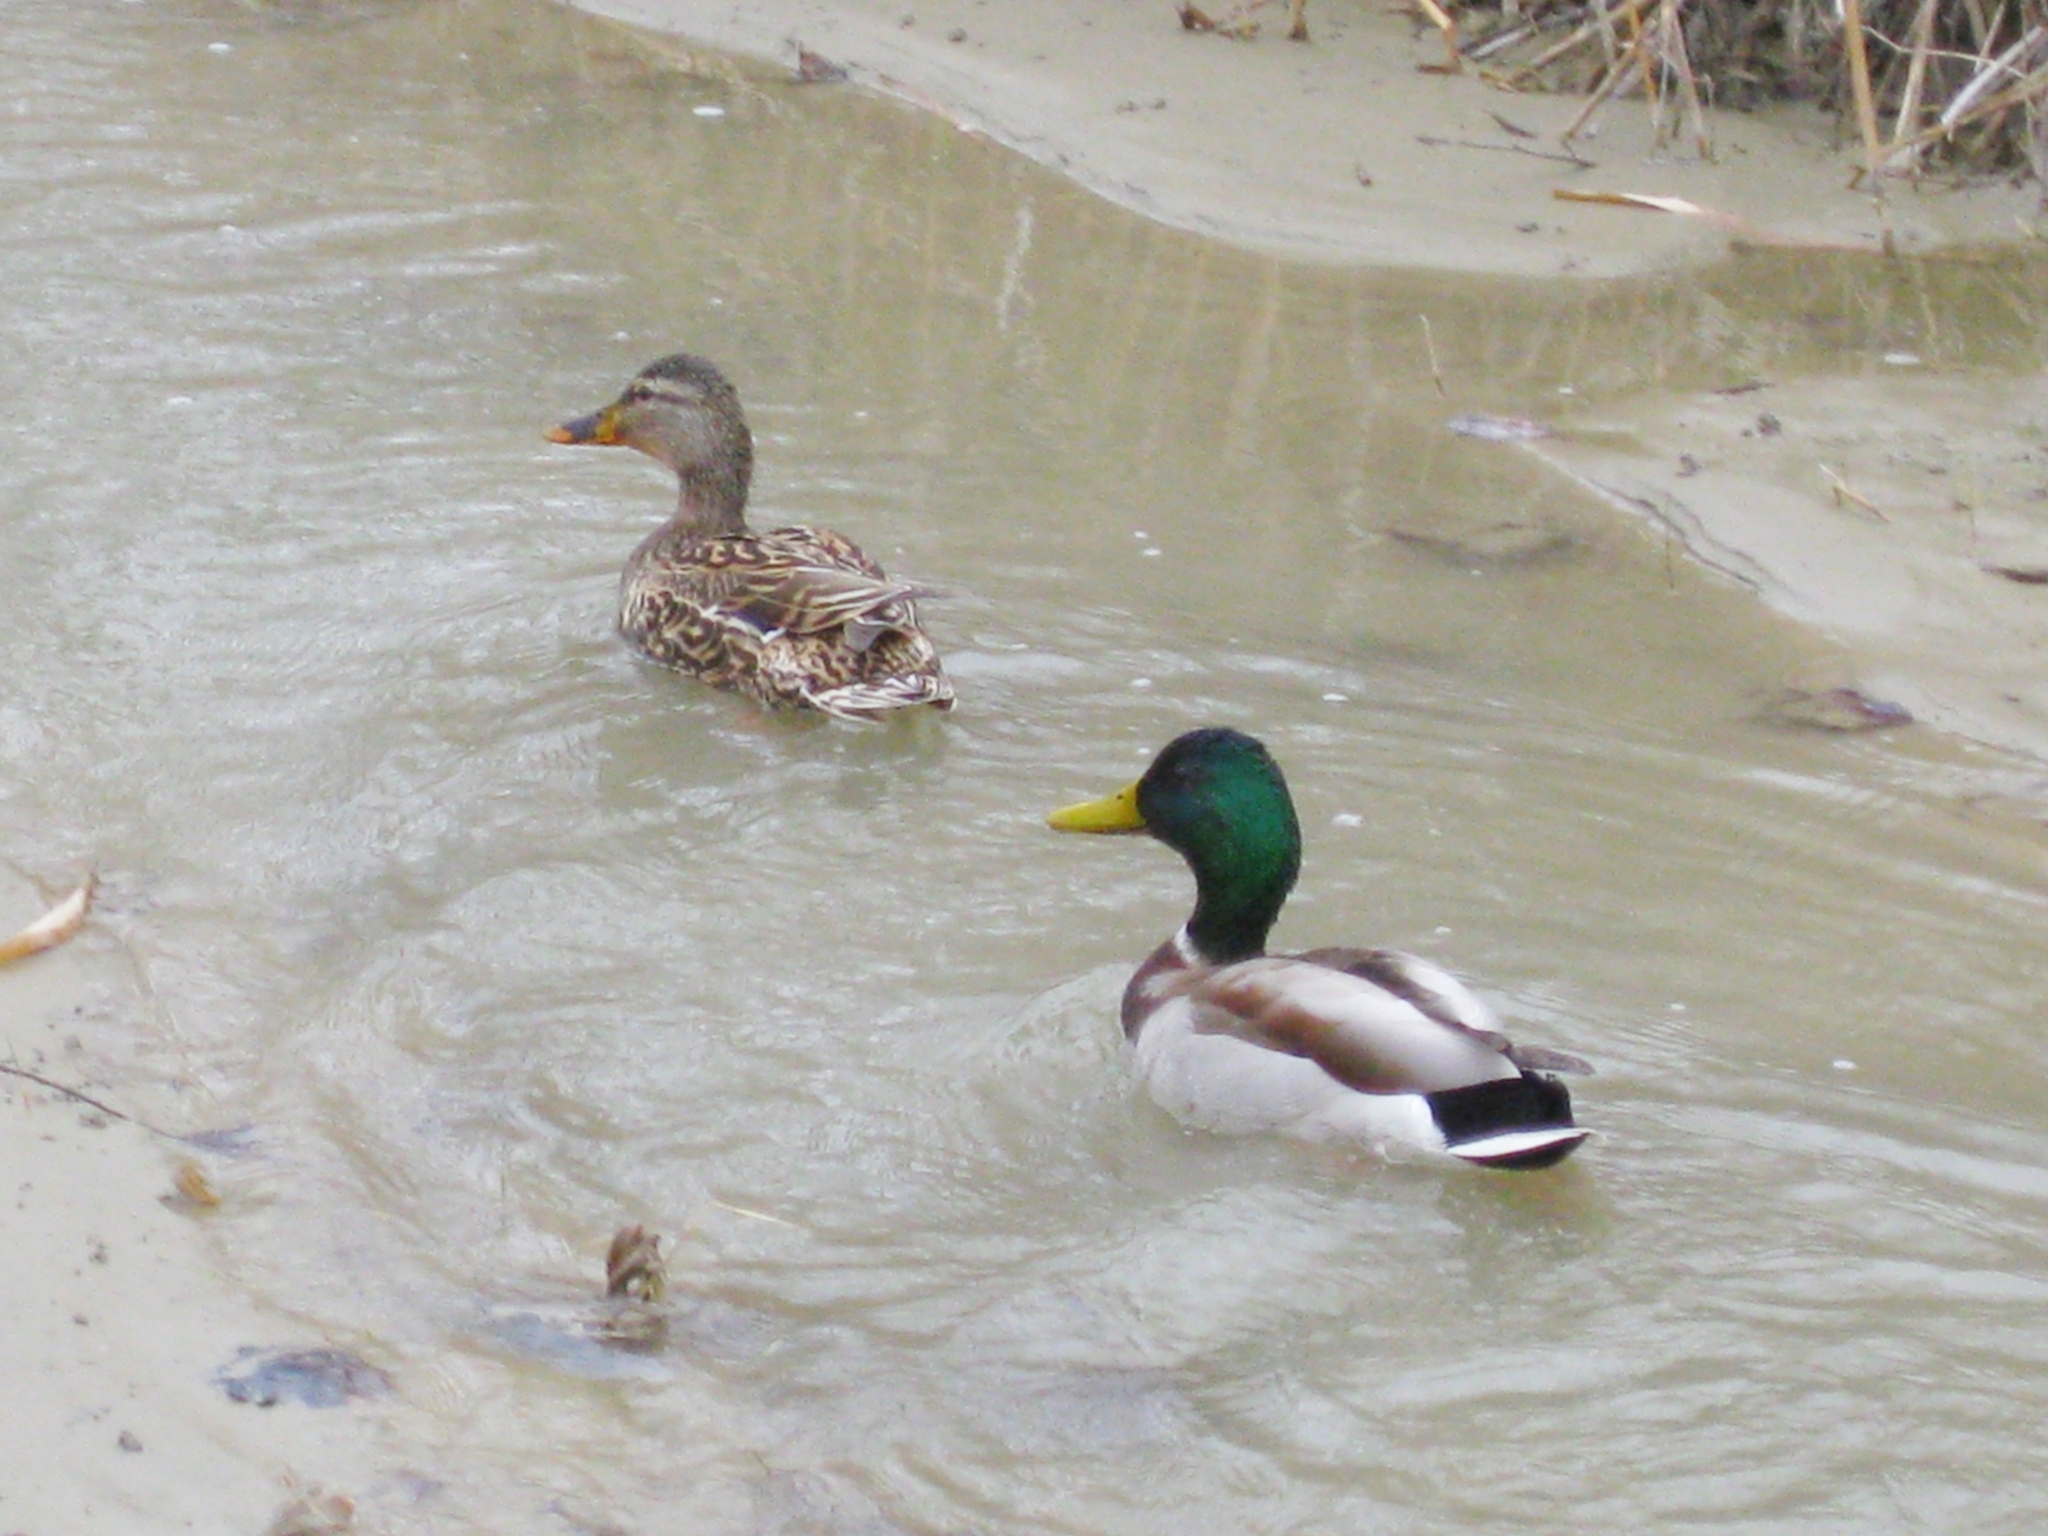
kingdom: Animalia
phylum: Chordata
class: Aves
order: Anseriformes
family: Anatidae
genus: Anas
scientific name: Anas platyrhynchos
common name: Mallard
